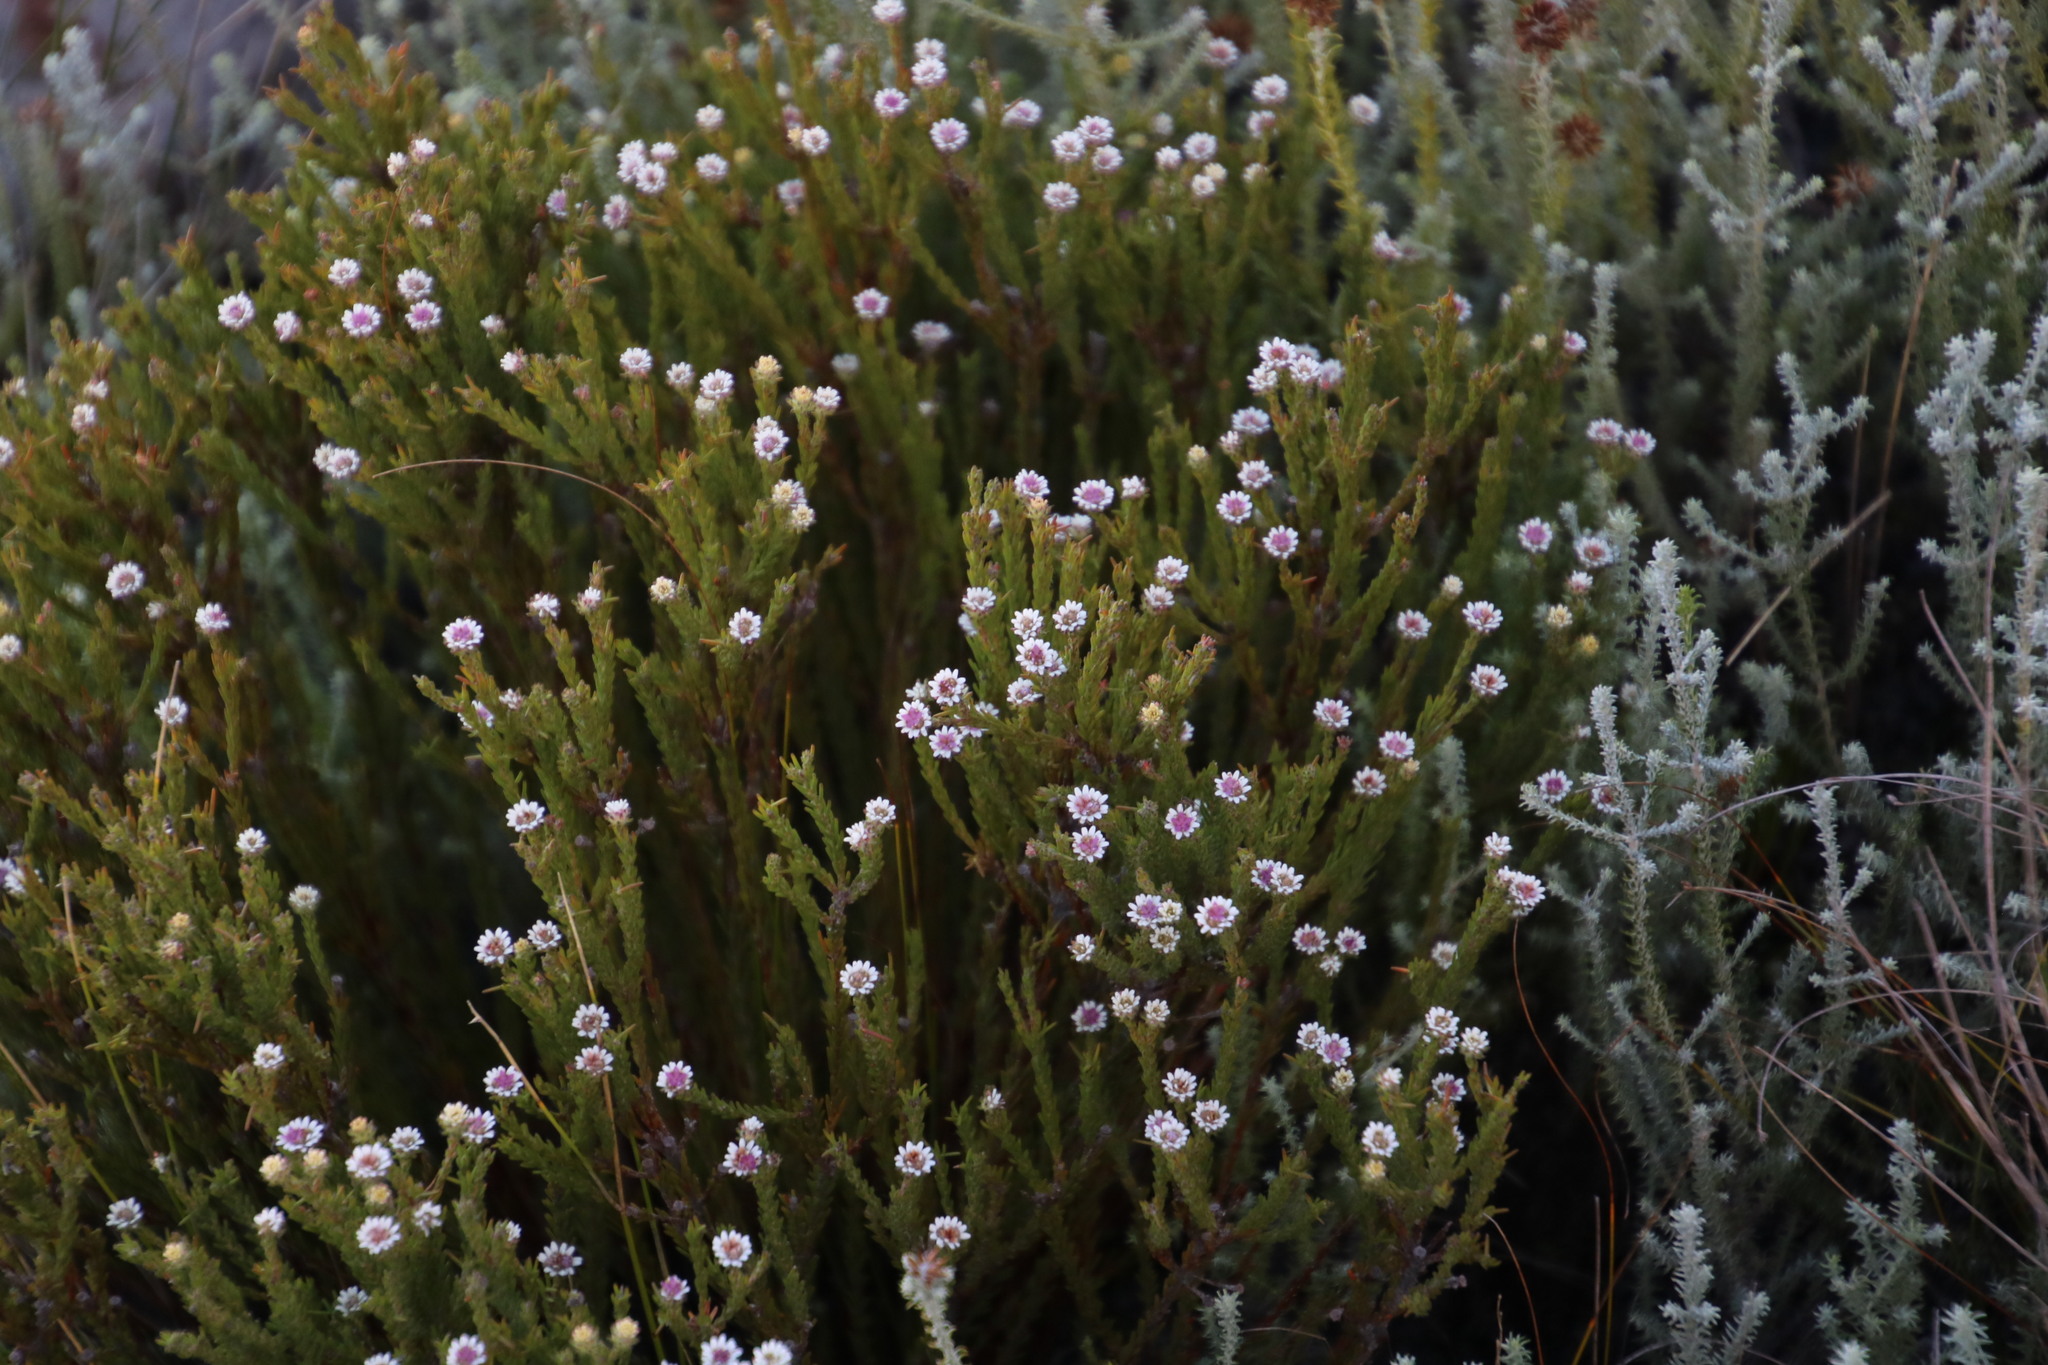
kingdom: Plantae
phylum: Tracheophyta
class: Magnoliopsida
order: Bruniales
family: Bruniaceae
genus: Staavia
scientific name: Staavia radiata
